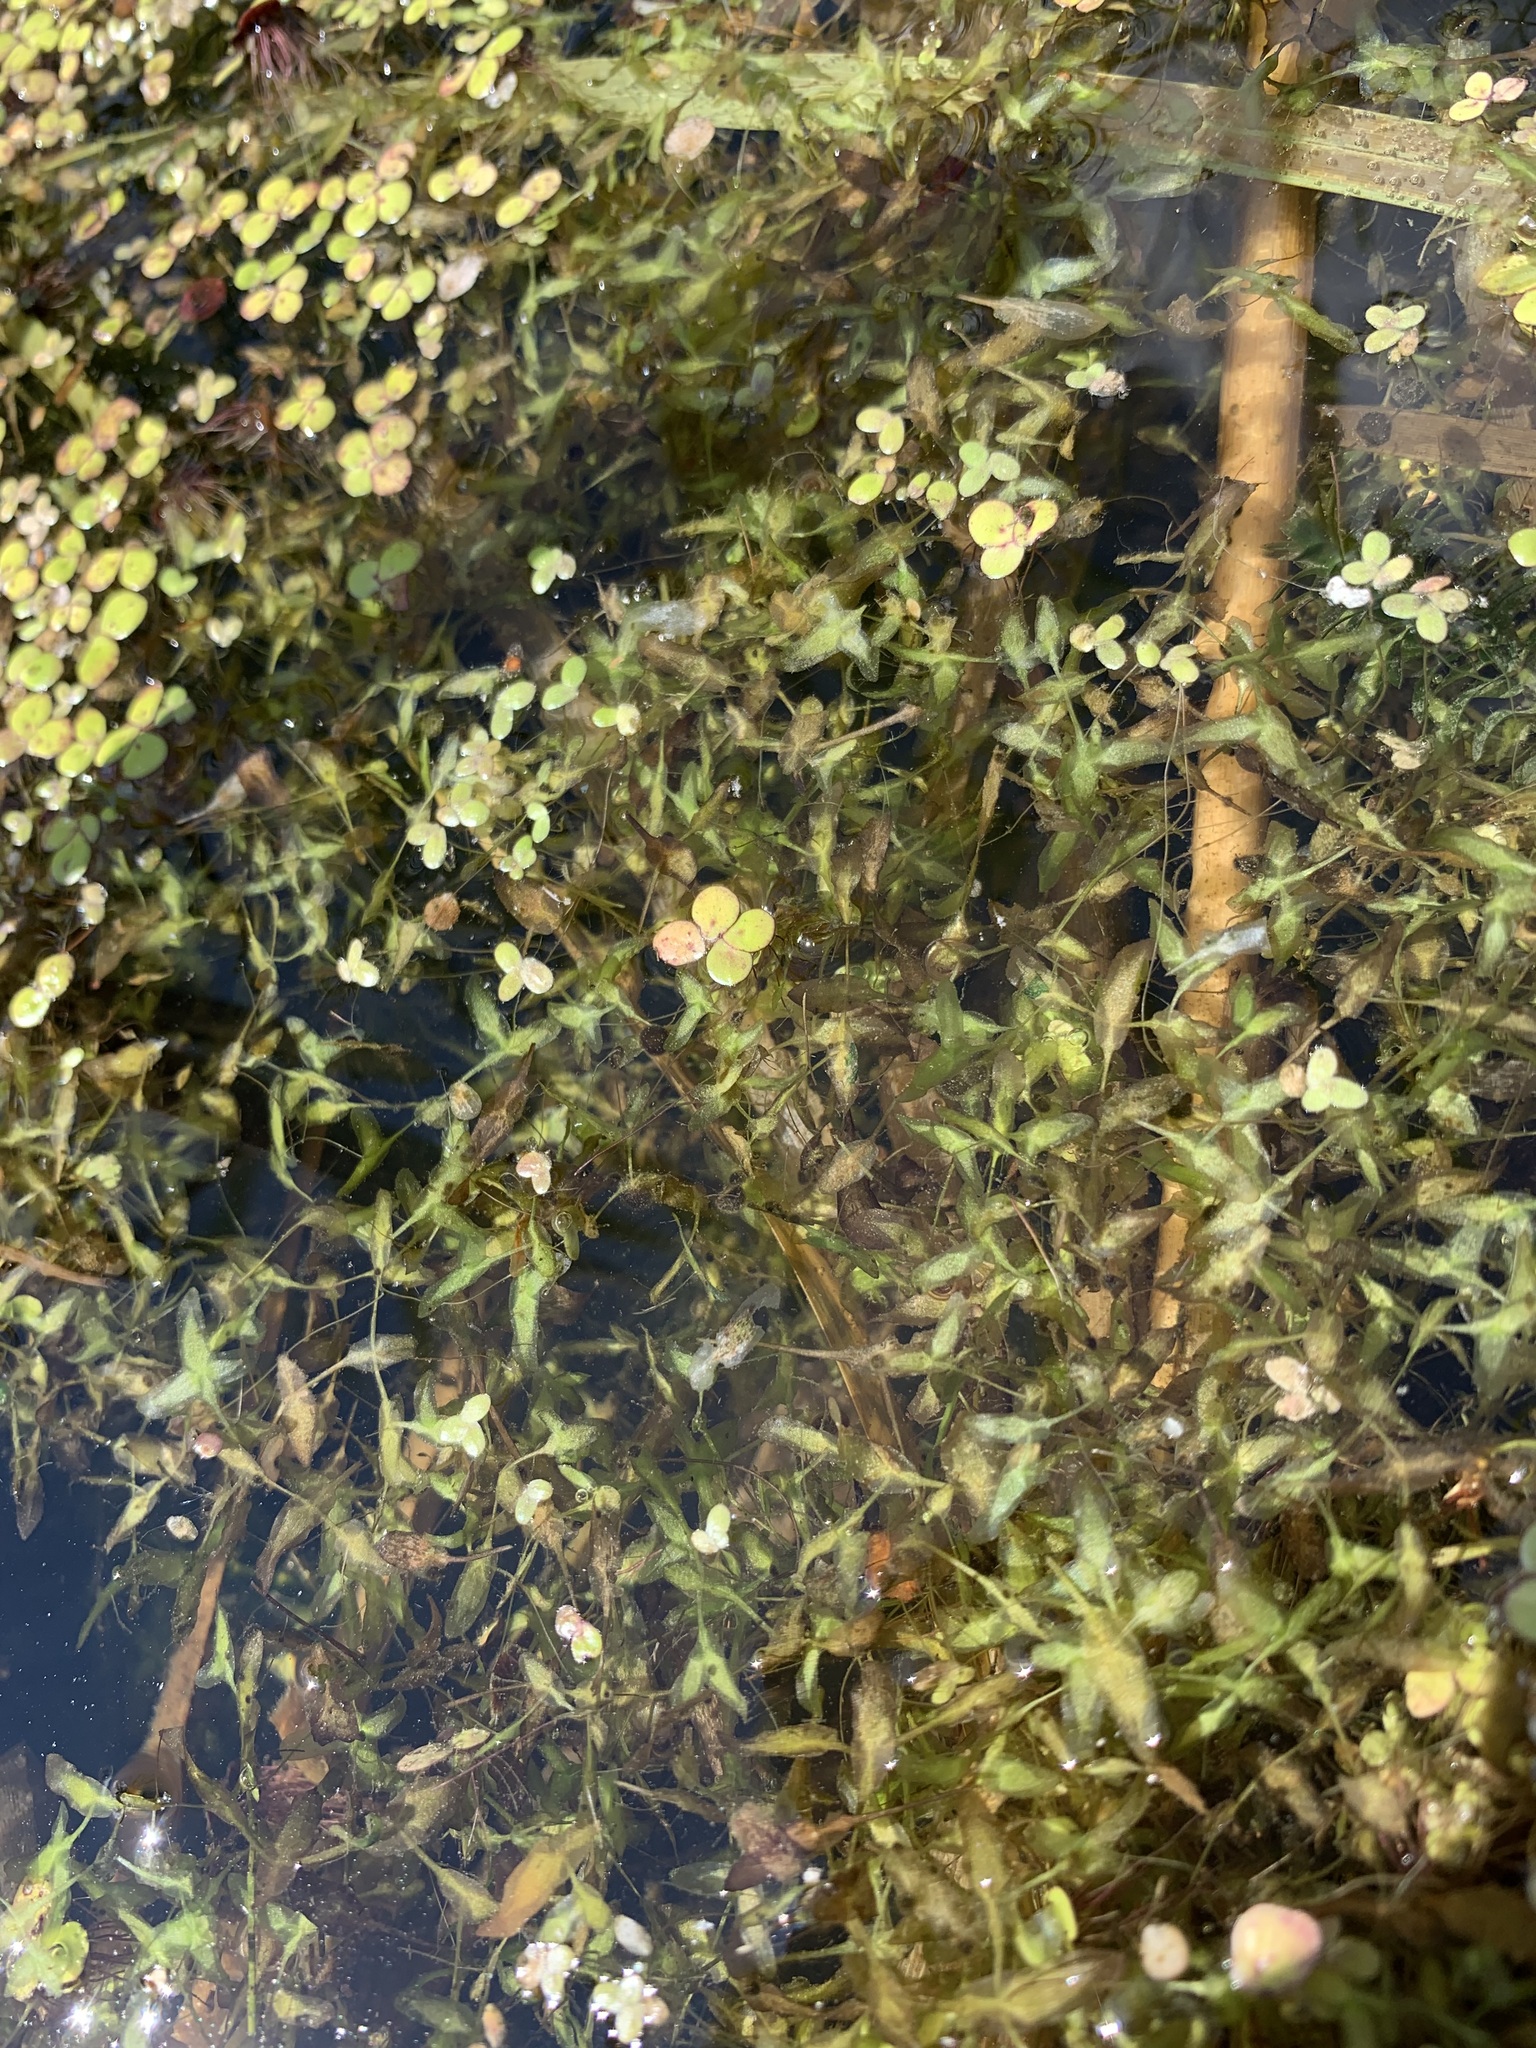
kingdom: Plantae
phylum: Tracheophyta
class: Liliopsida
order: Alismatales
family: Araceae
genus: Lemna
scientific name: Lemna trisulca
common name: Ivy-leaved duckweed
